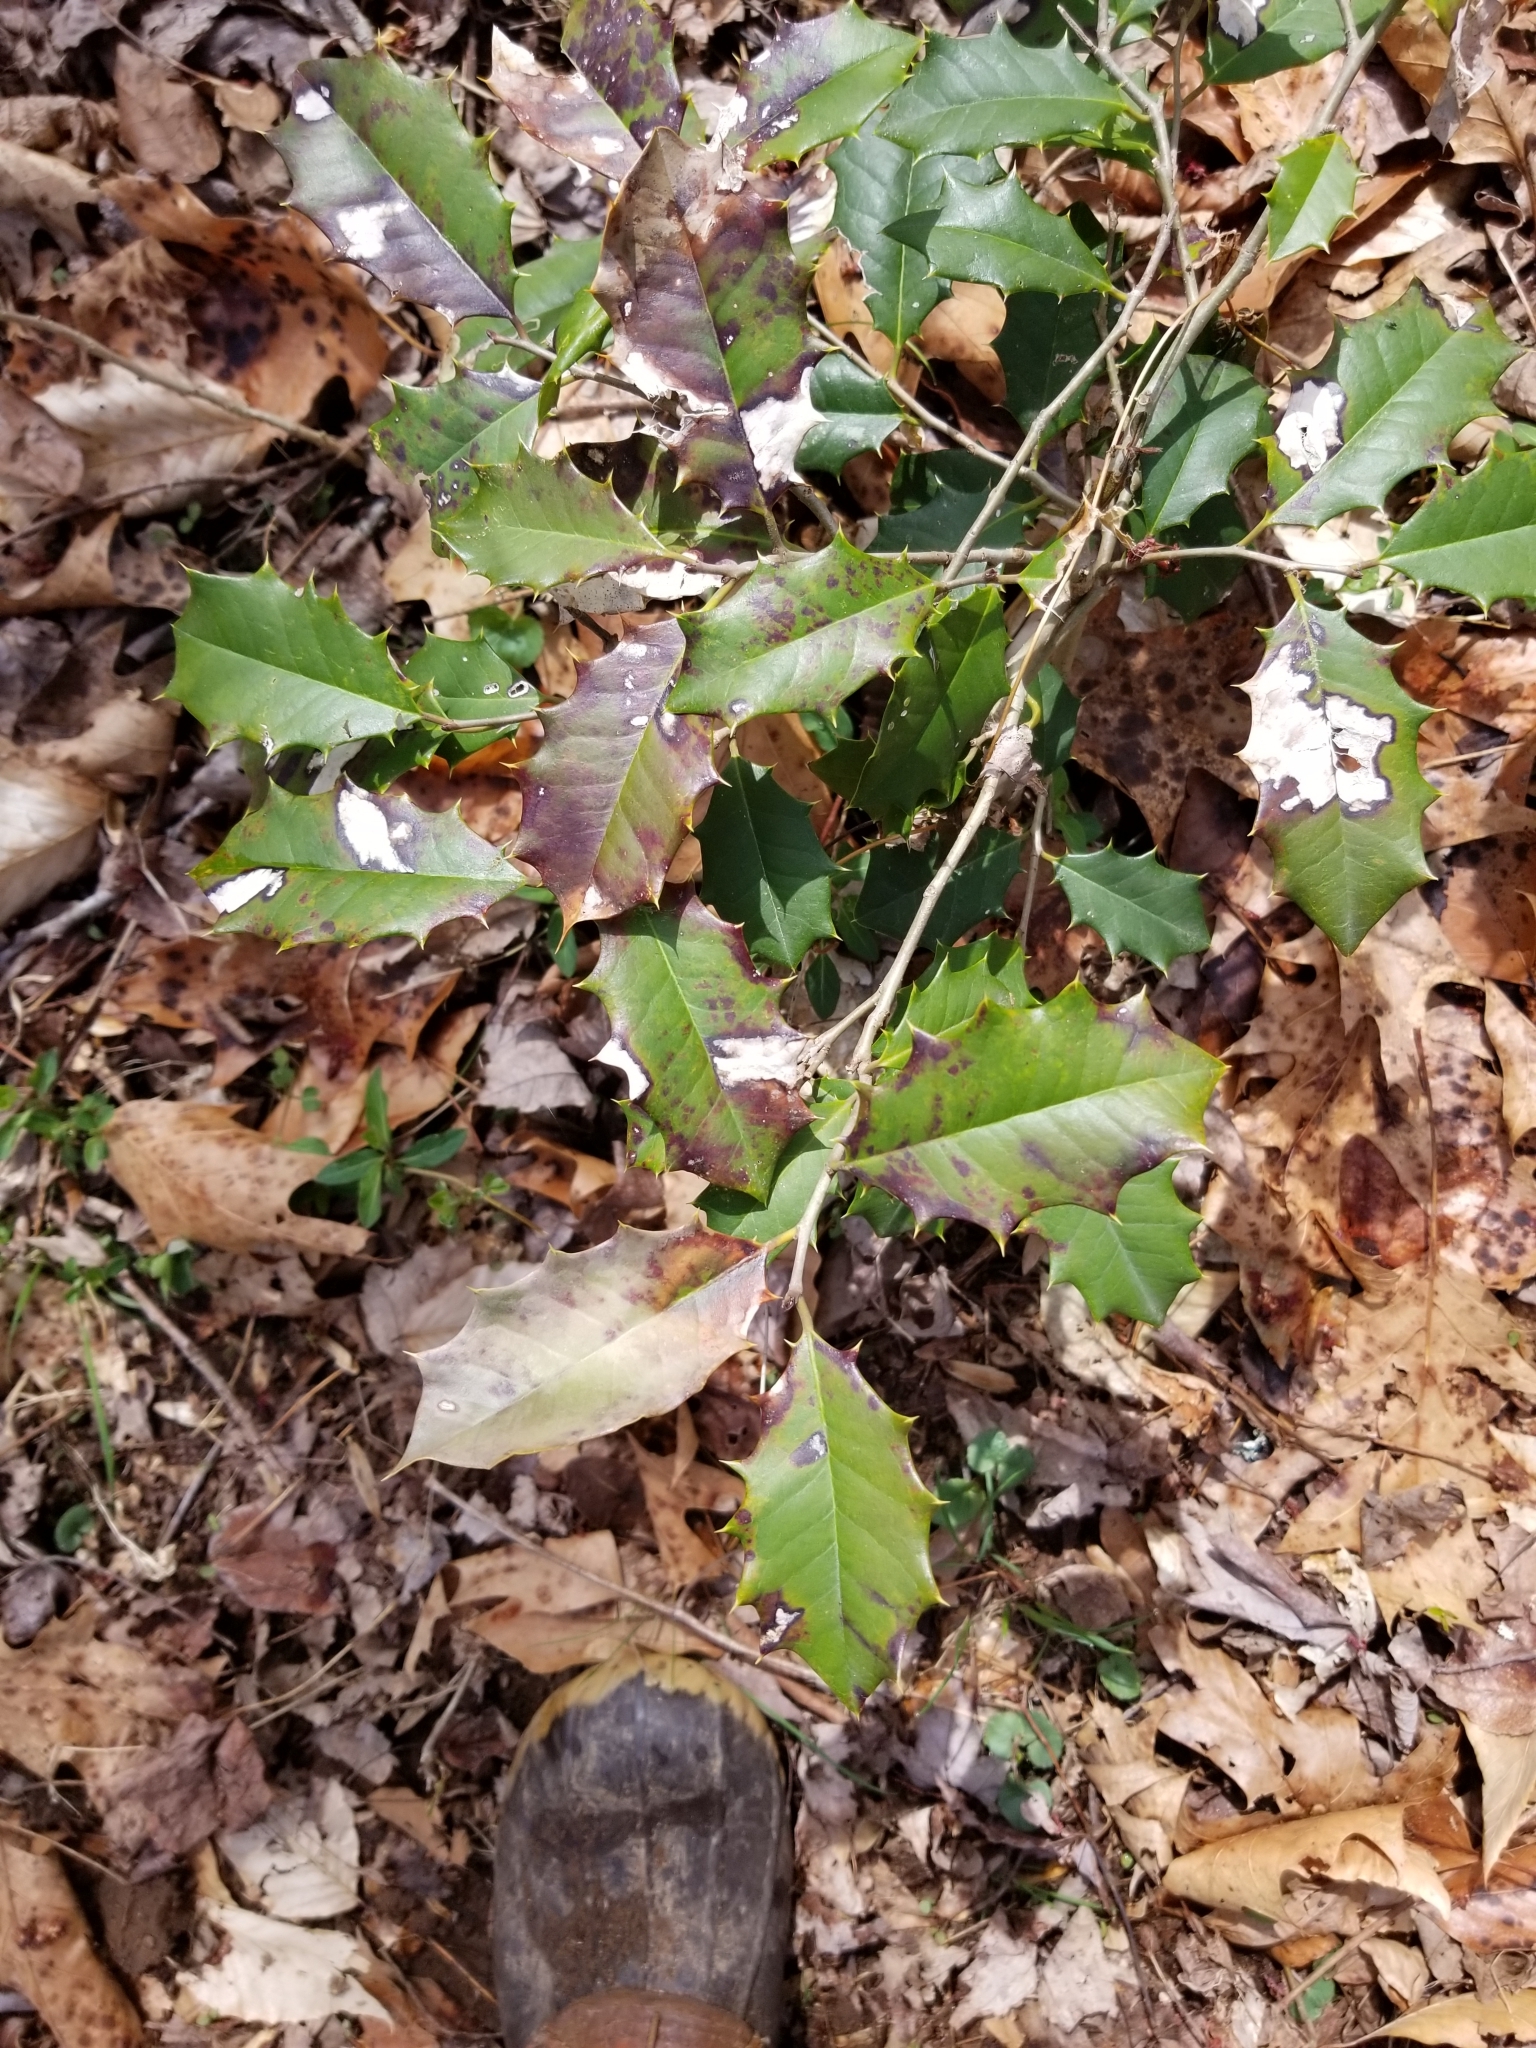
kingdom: Plantae
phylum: Tracheophyta
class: Magnoliopsida
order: Aquifoliales
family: Aquifoliaceae
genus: Ilex
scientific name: Ilex opaca
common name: American holly
